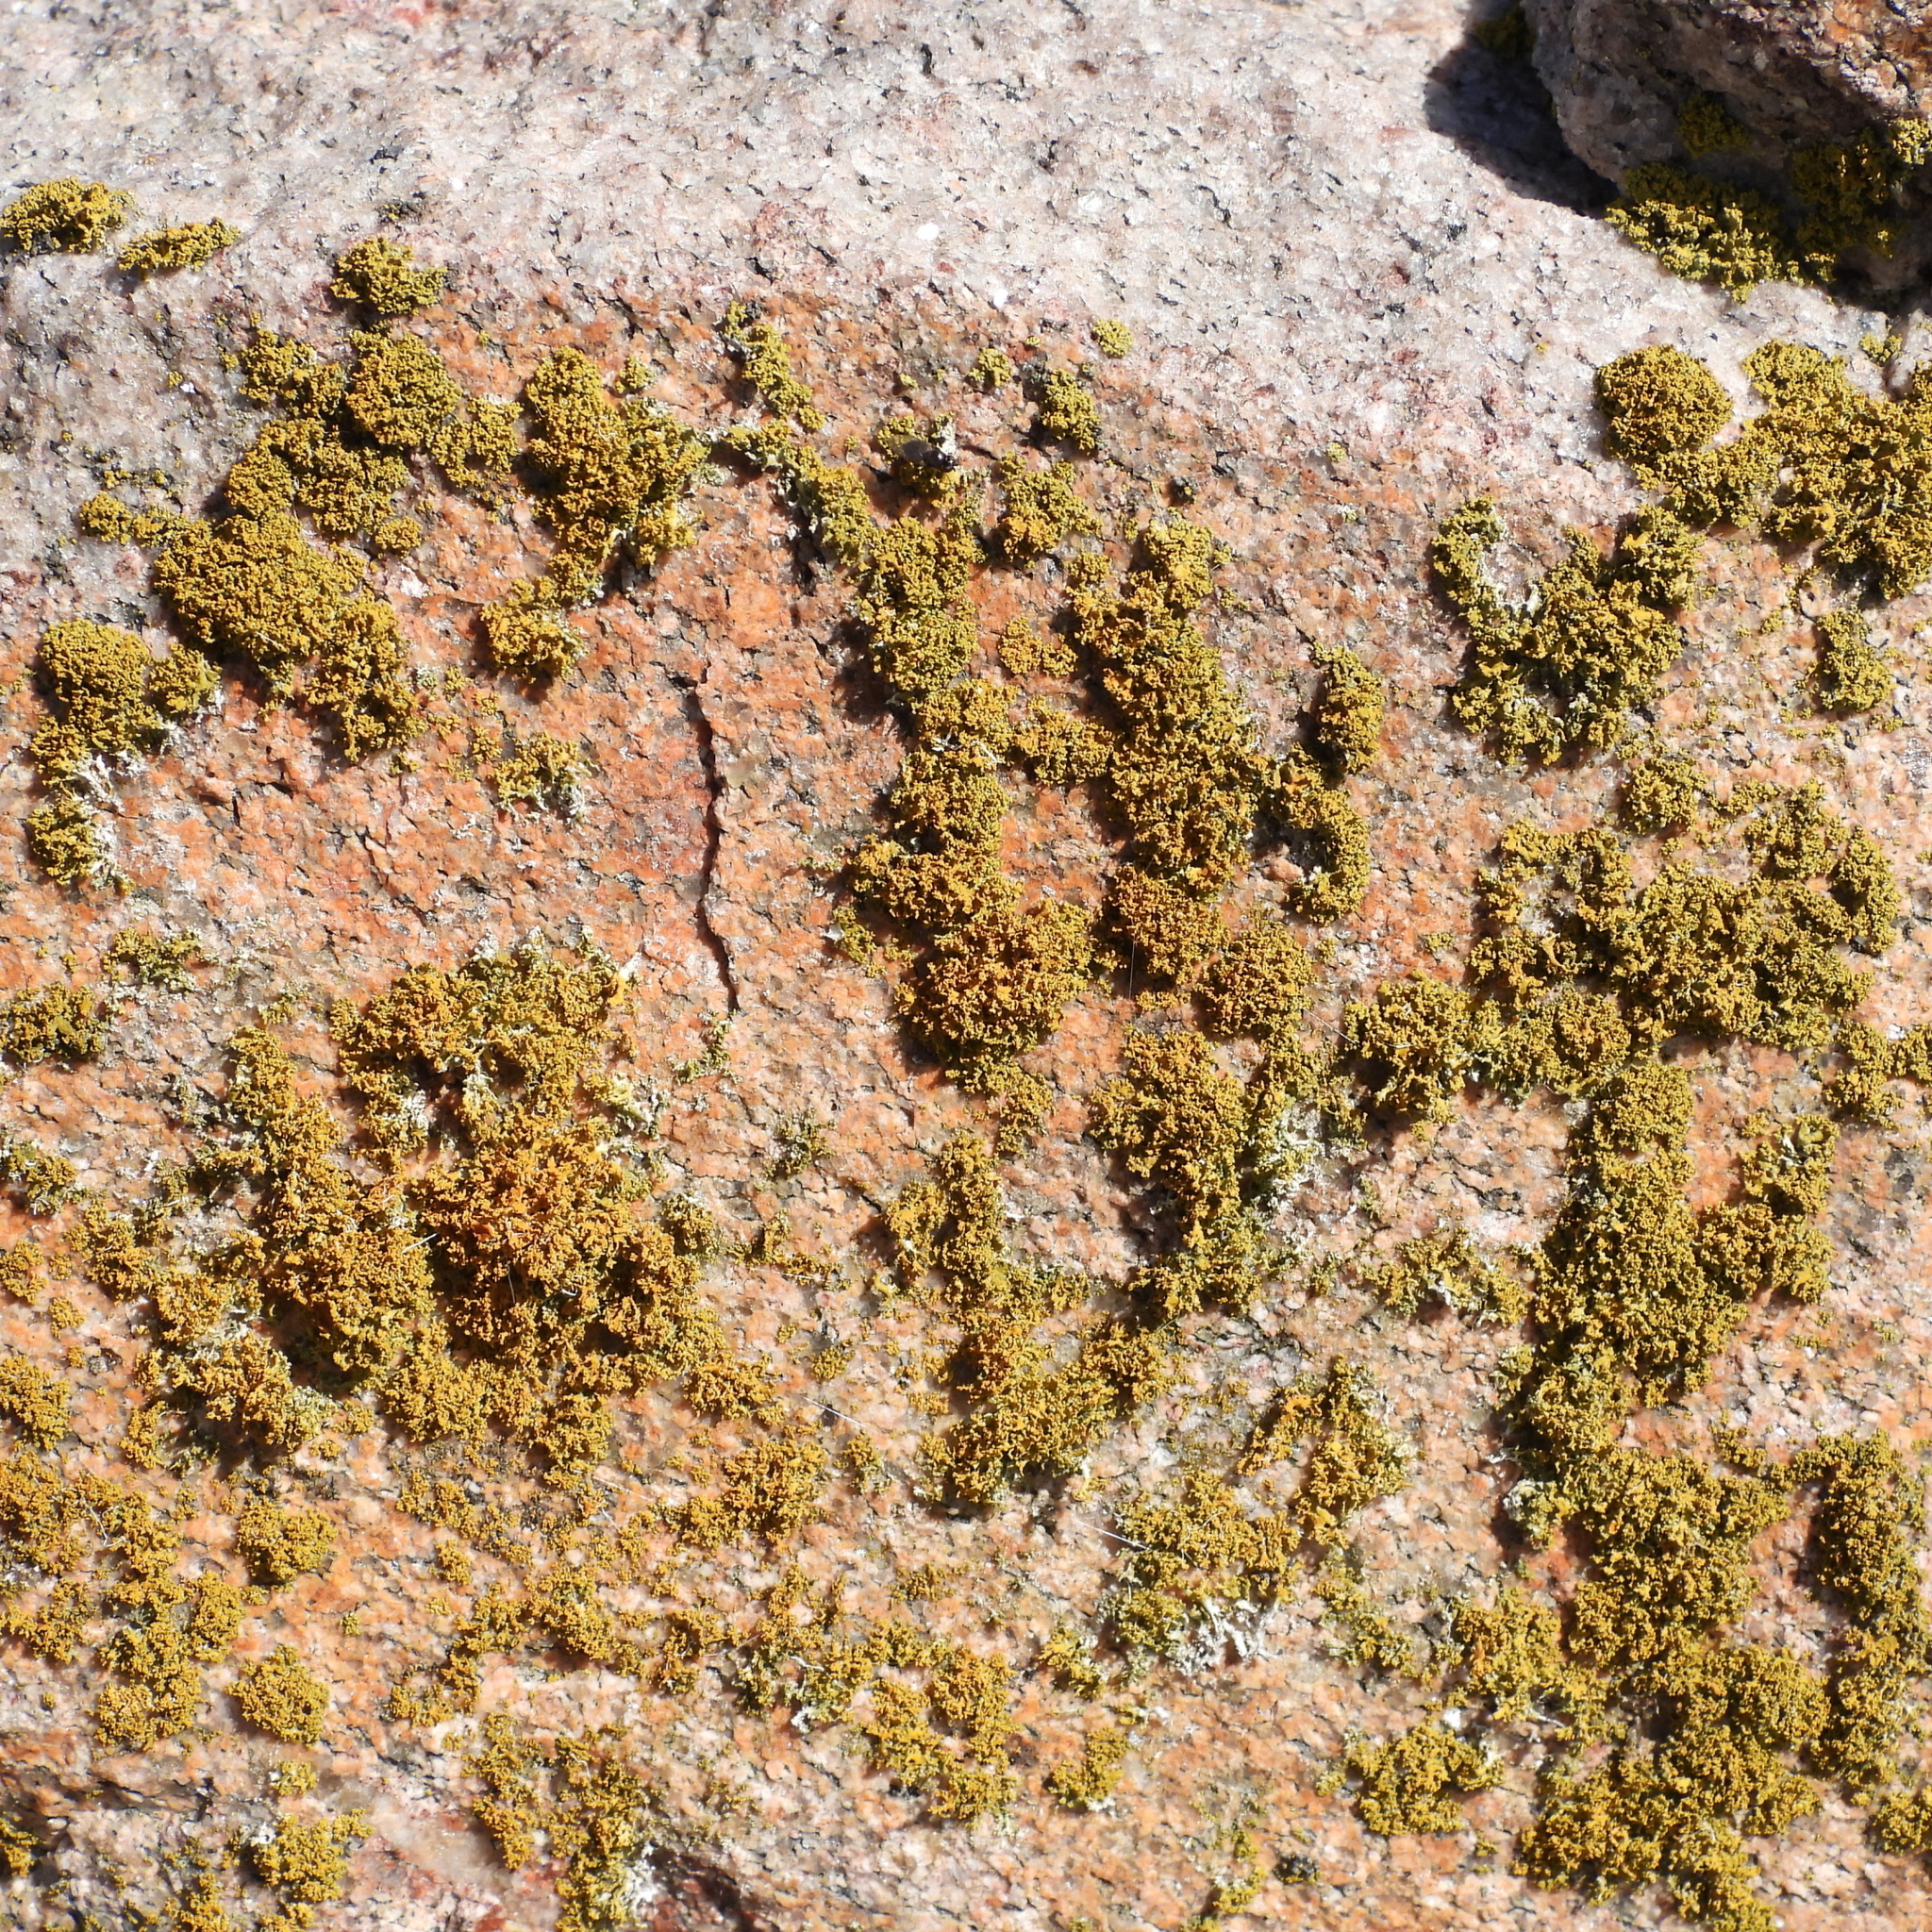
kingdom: Fungi
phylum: Ascomycota
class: Lecanoromycetes
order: Teloschistales
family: Teloschistaceae
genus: Polycauliona
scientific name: Polycauliona candelaria
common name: Shrubby sunburst lichen
